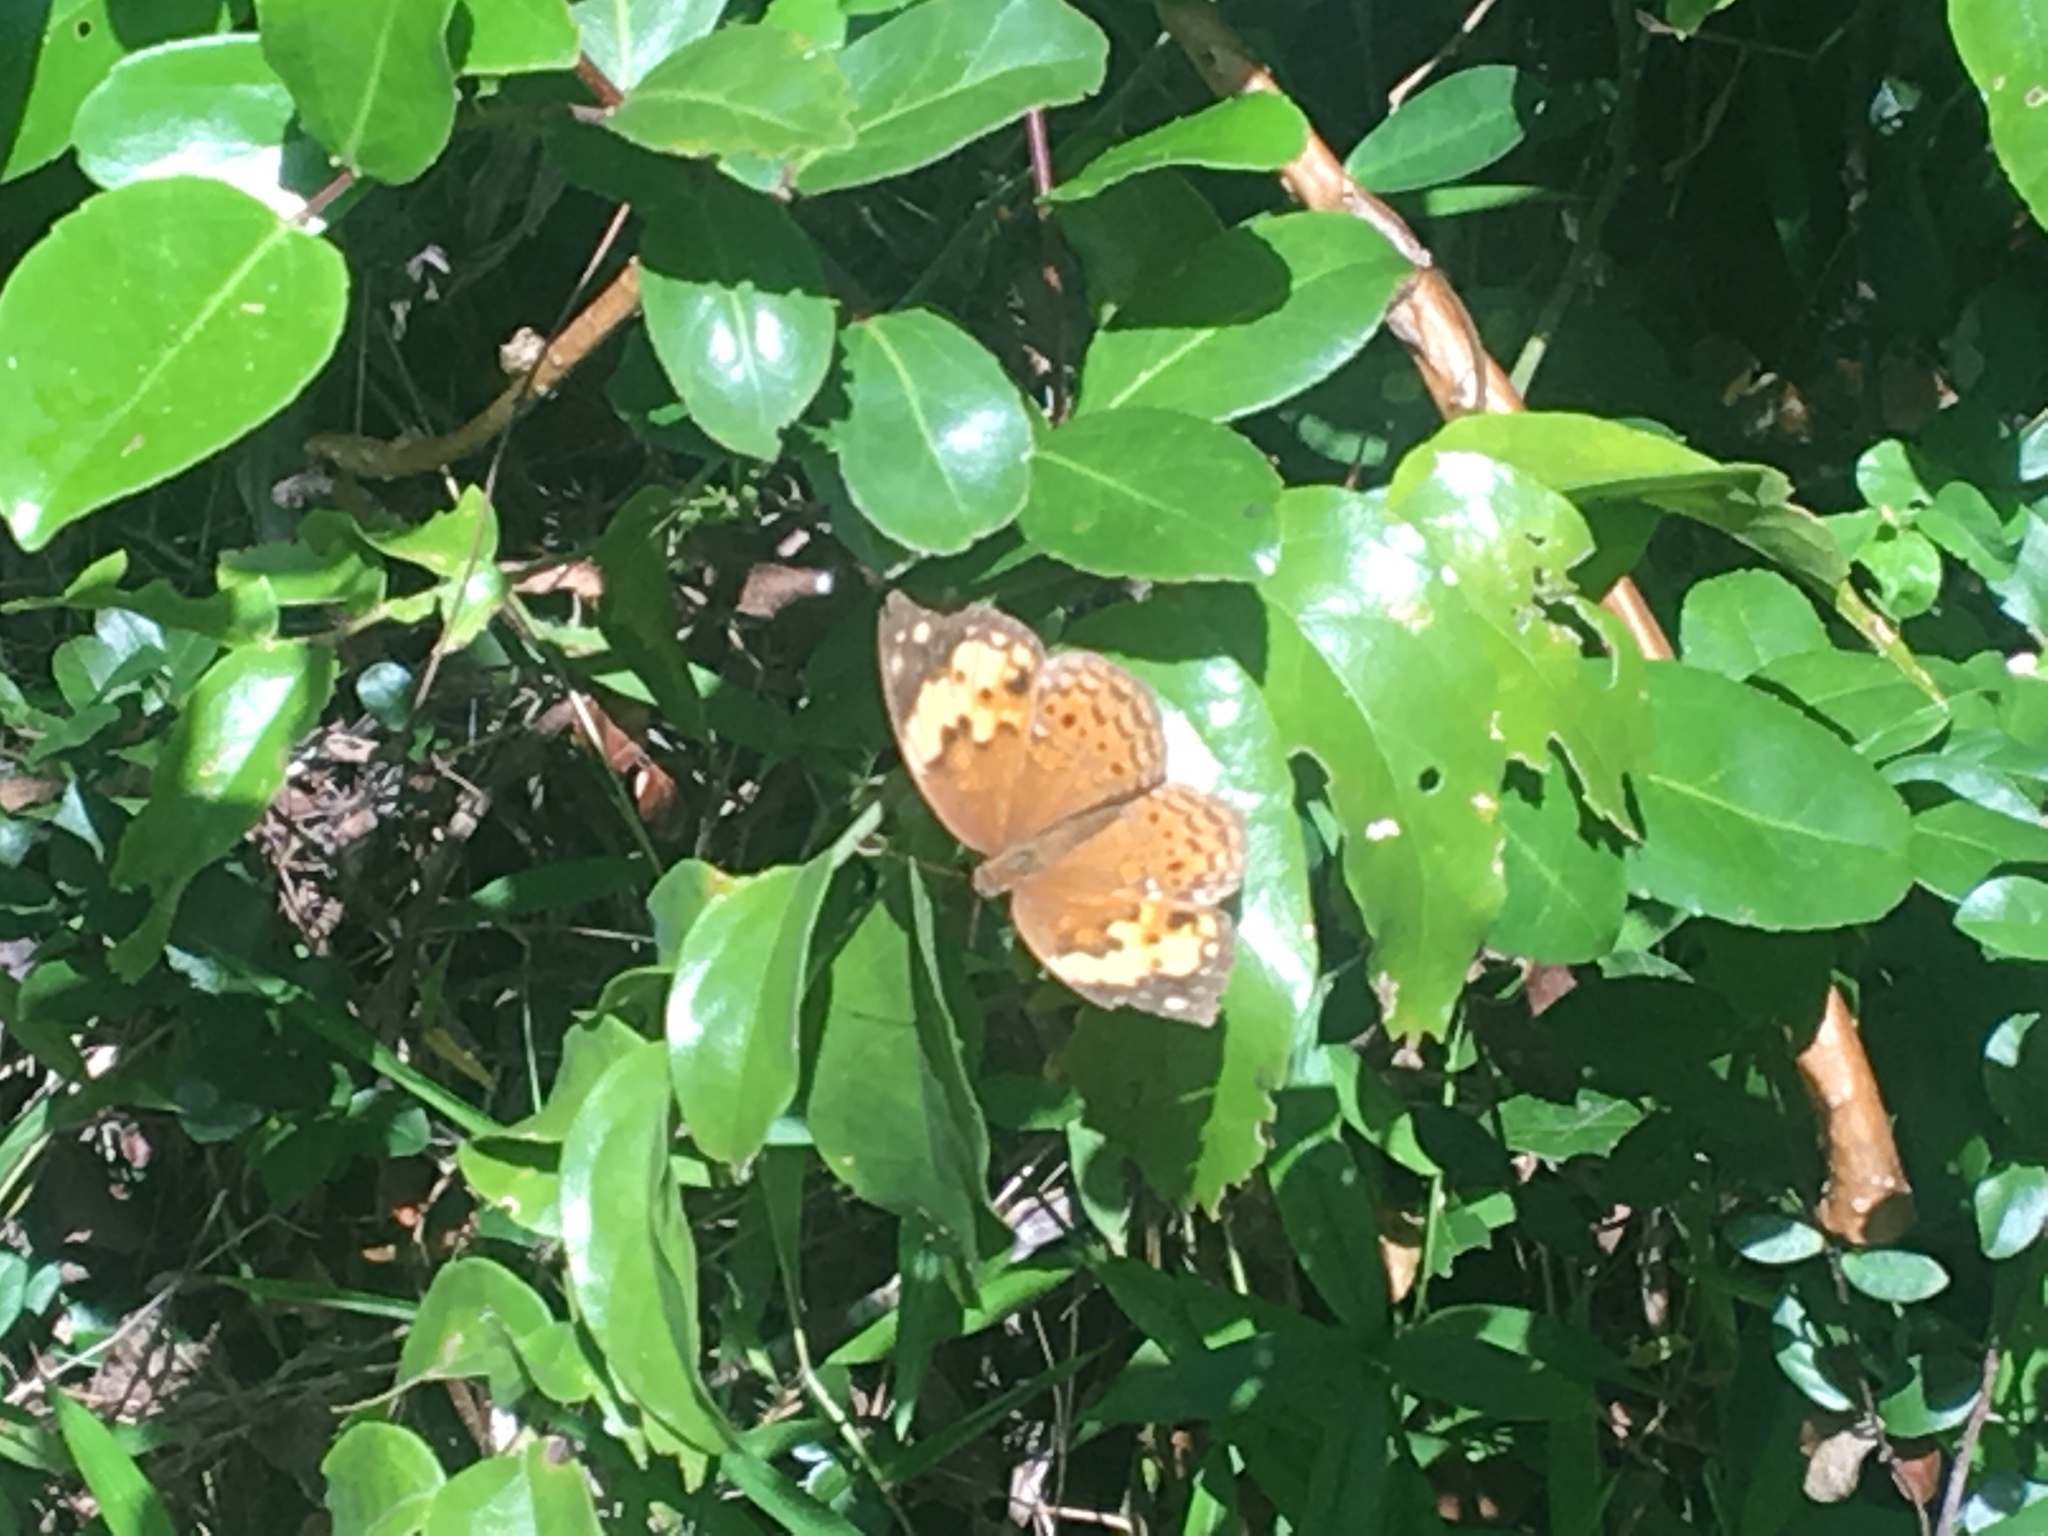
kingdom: Animalia
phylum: Arthropoda
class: Insecta
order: Lepidoptera
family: Nymphalidae
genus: Cupha
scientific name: Cupha erymanthis
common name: Rustic
